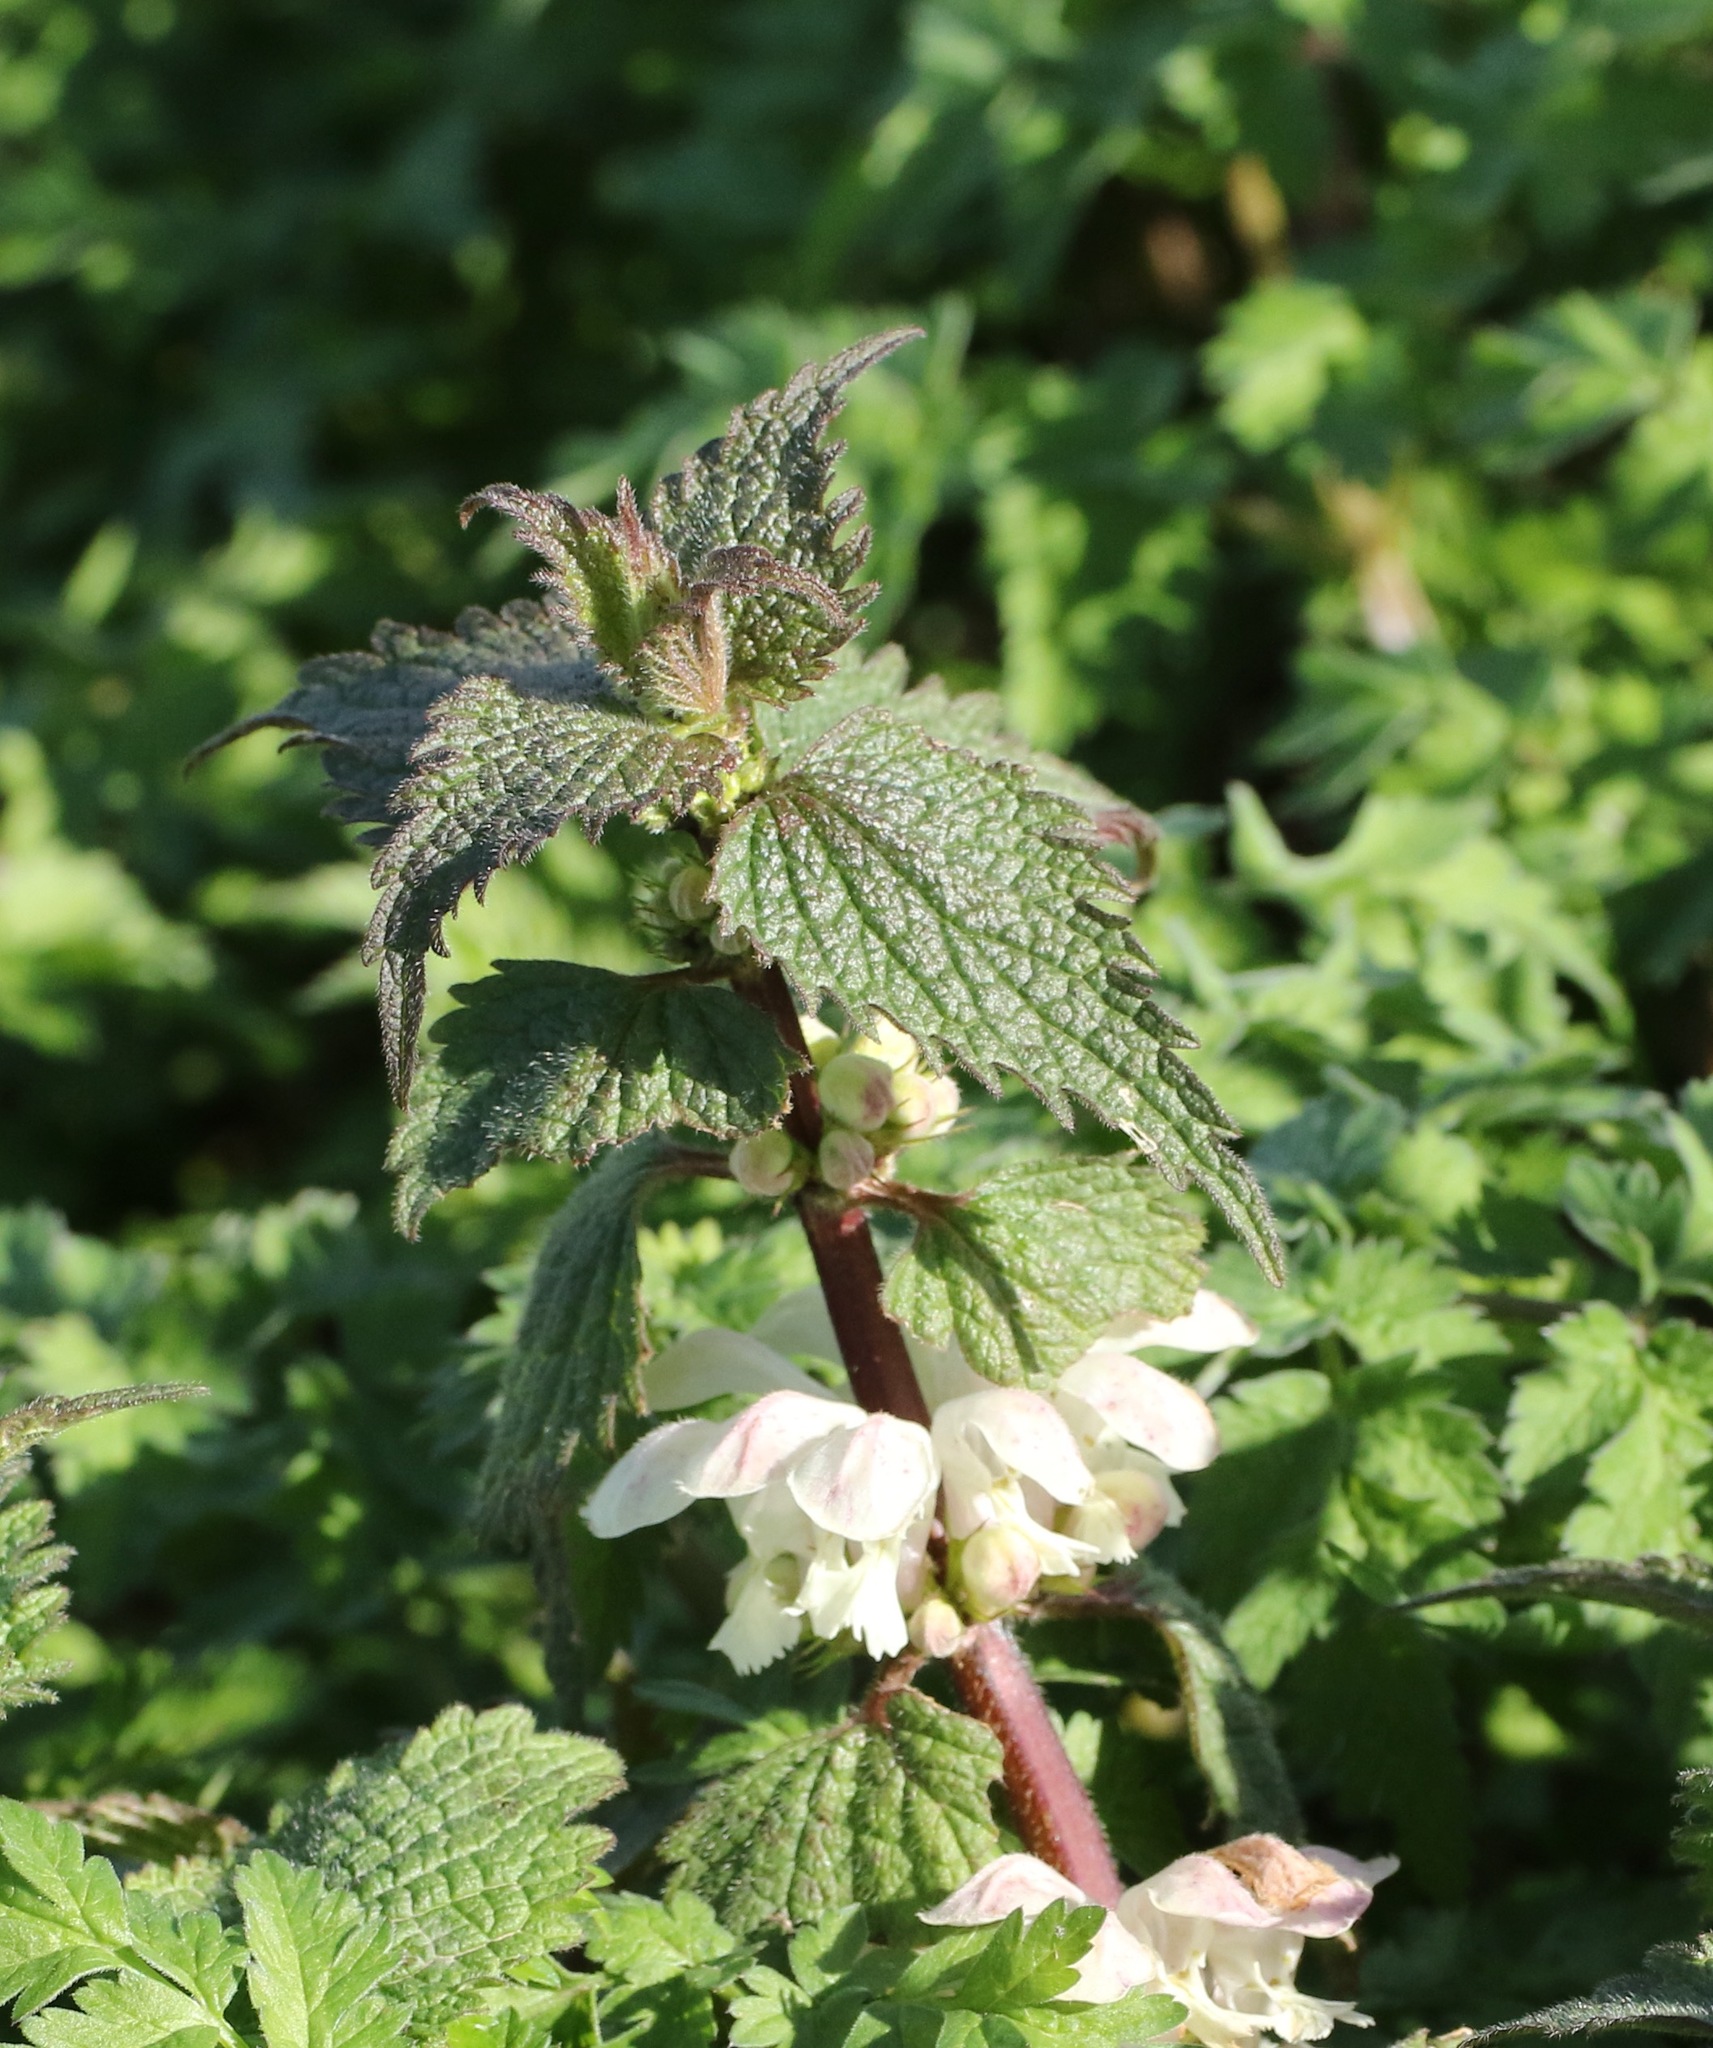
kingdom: Plantae
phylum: Tracheophyta
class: Magnoliopsida
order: Lamiales
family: Lamiaceae
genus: Lamium
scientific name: Lamium album
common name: White dead-nettle
